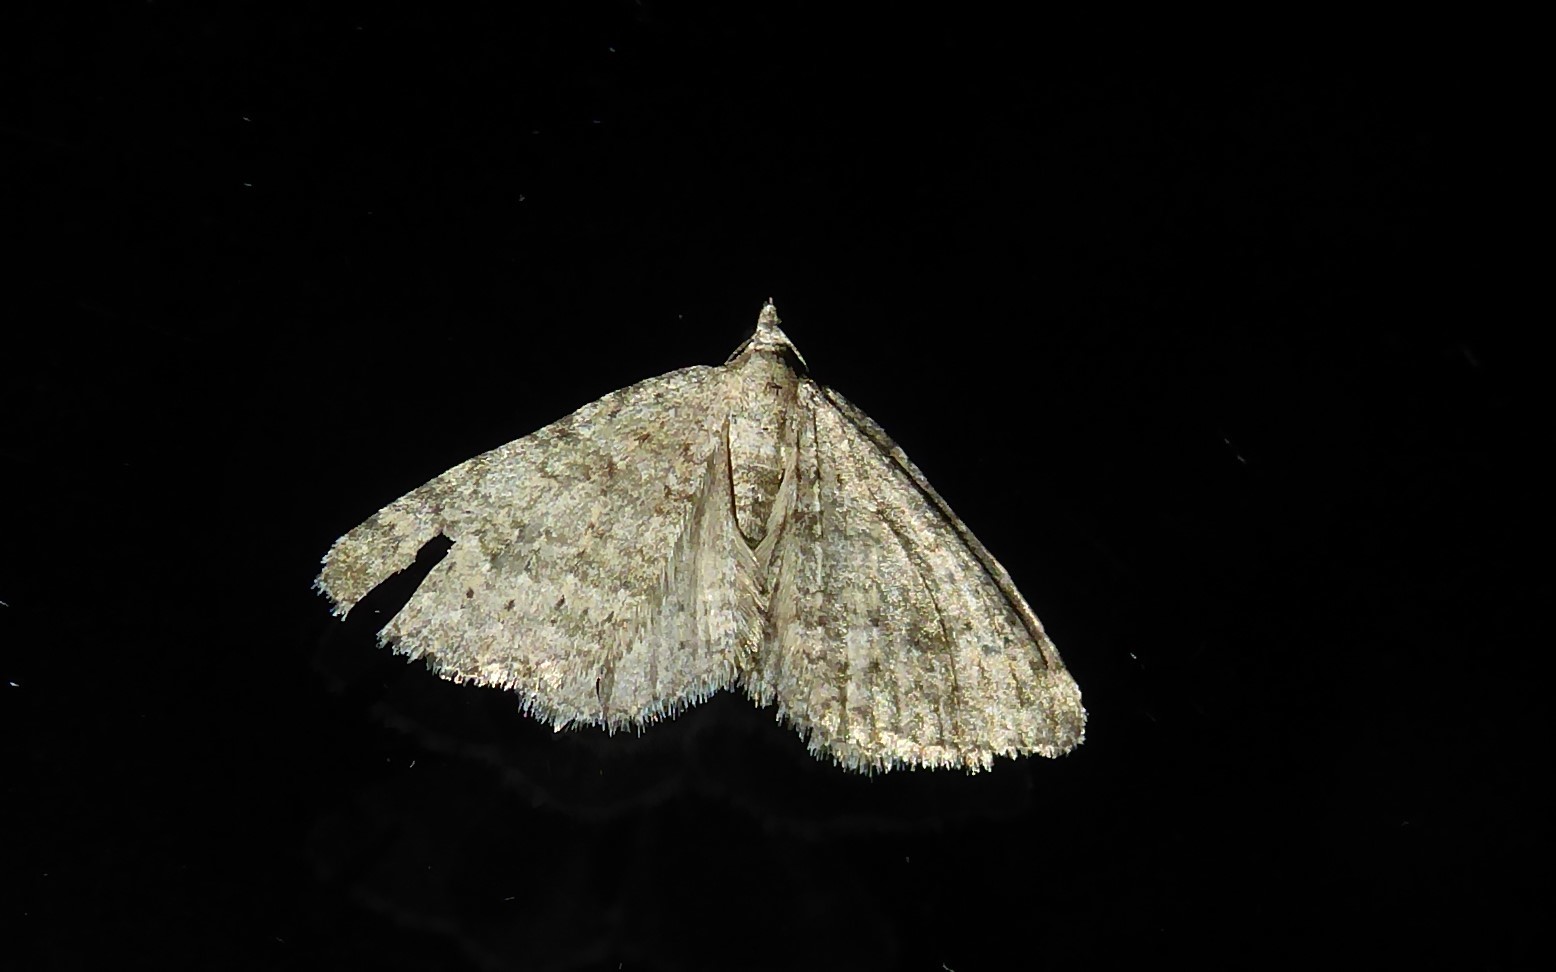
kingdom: Animalia
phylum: Arthropoda
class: Insecta
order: Lepidoptera
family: Geometridae
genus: Helastia
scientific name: Helastia corcularia
